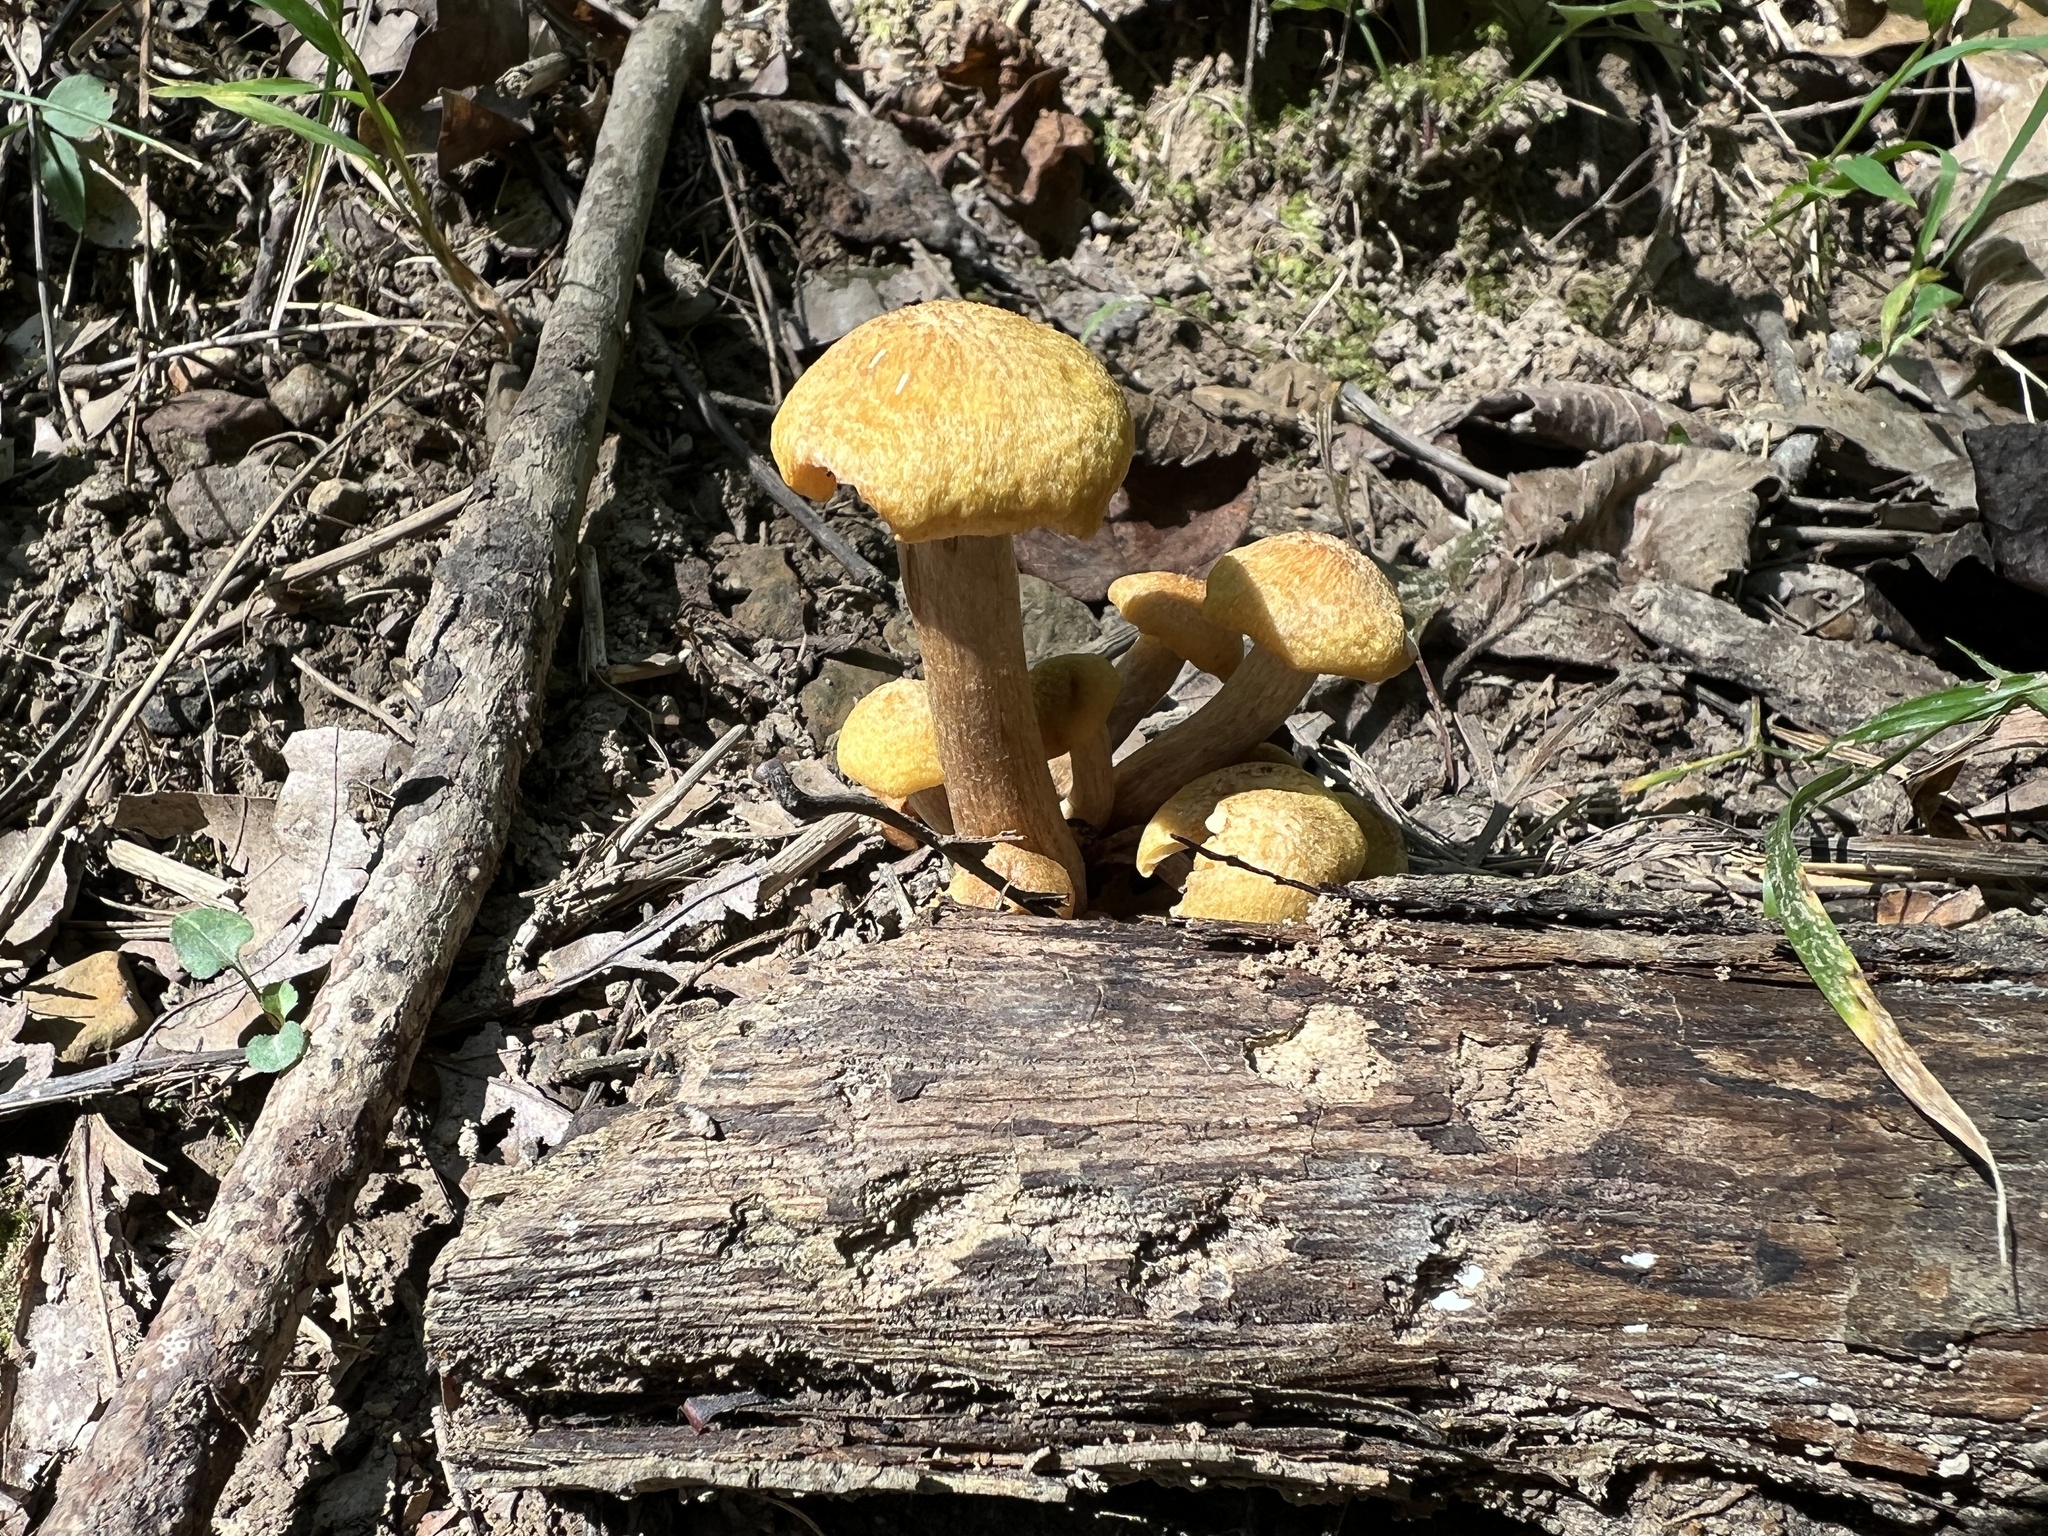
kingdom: Fungi
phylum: Basidiomycota
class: Agaricomycetes
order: Agaricales
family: Physalacriaceae
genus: Desarmillaria
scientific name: Desarmillaria caespitosa
